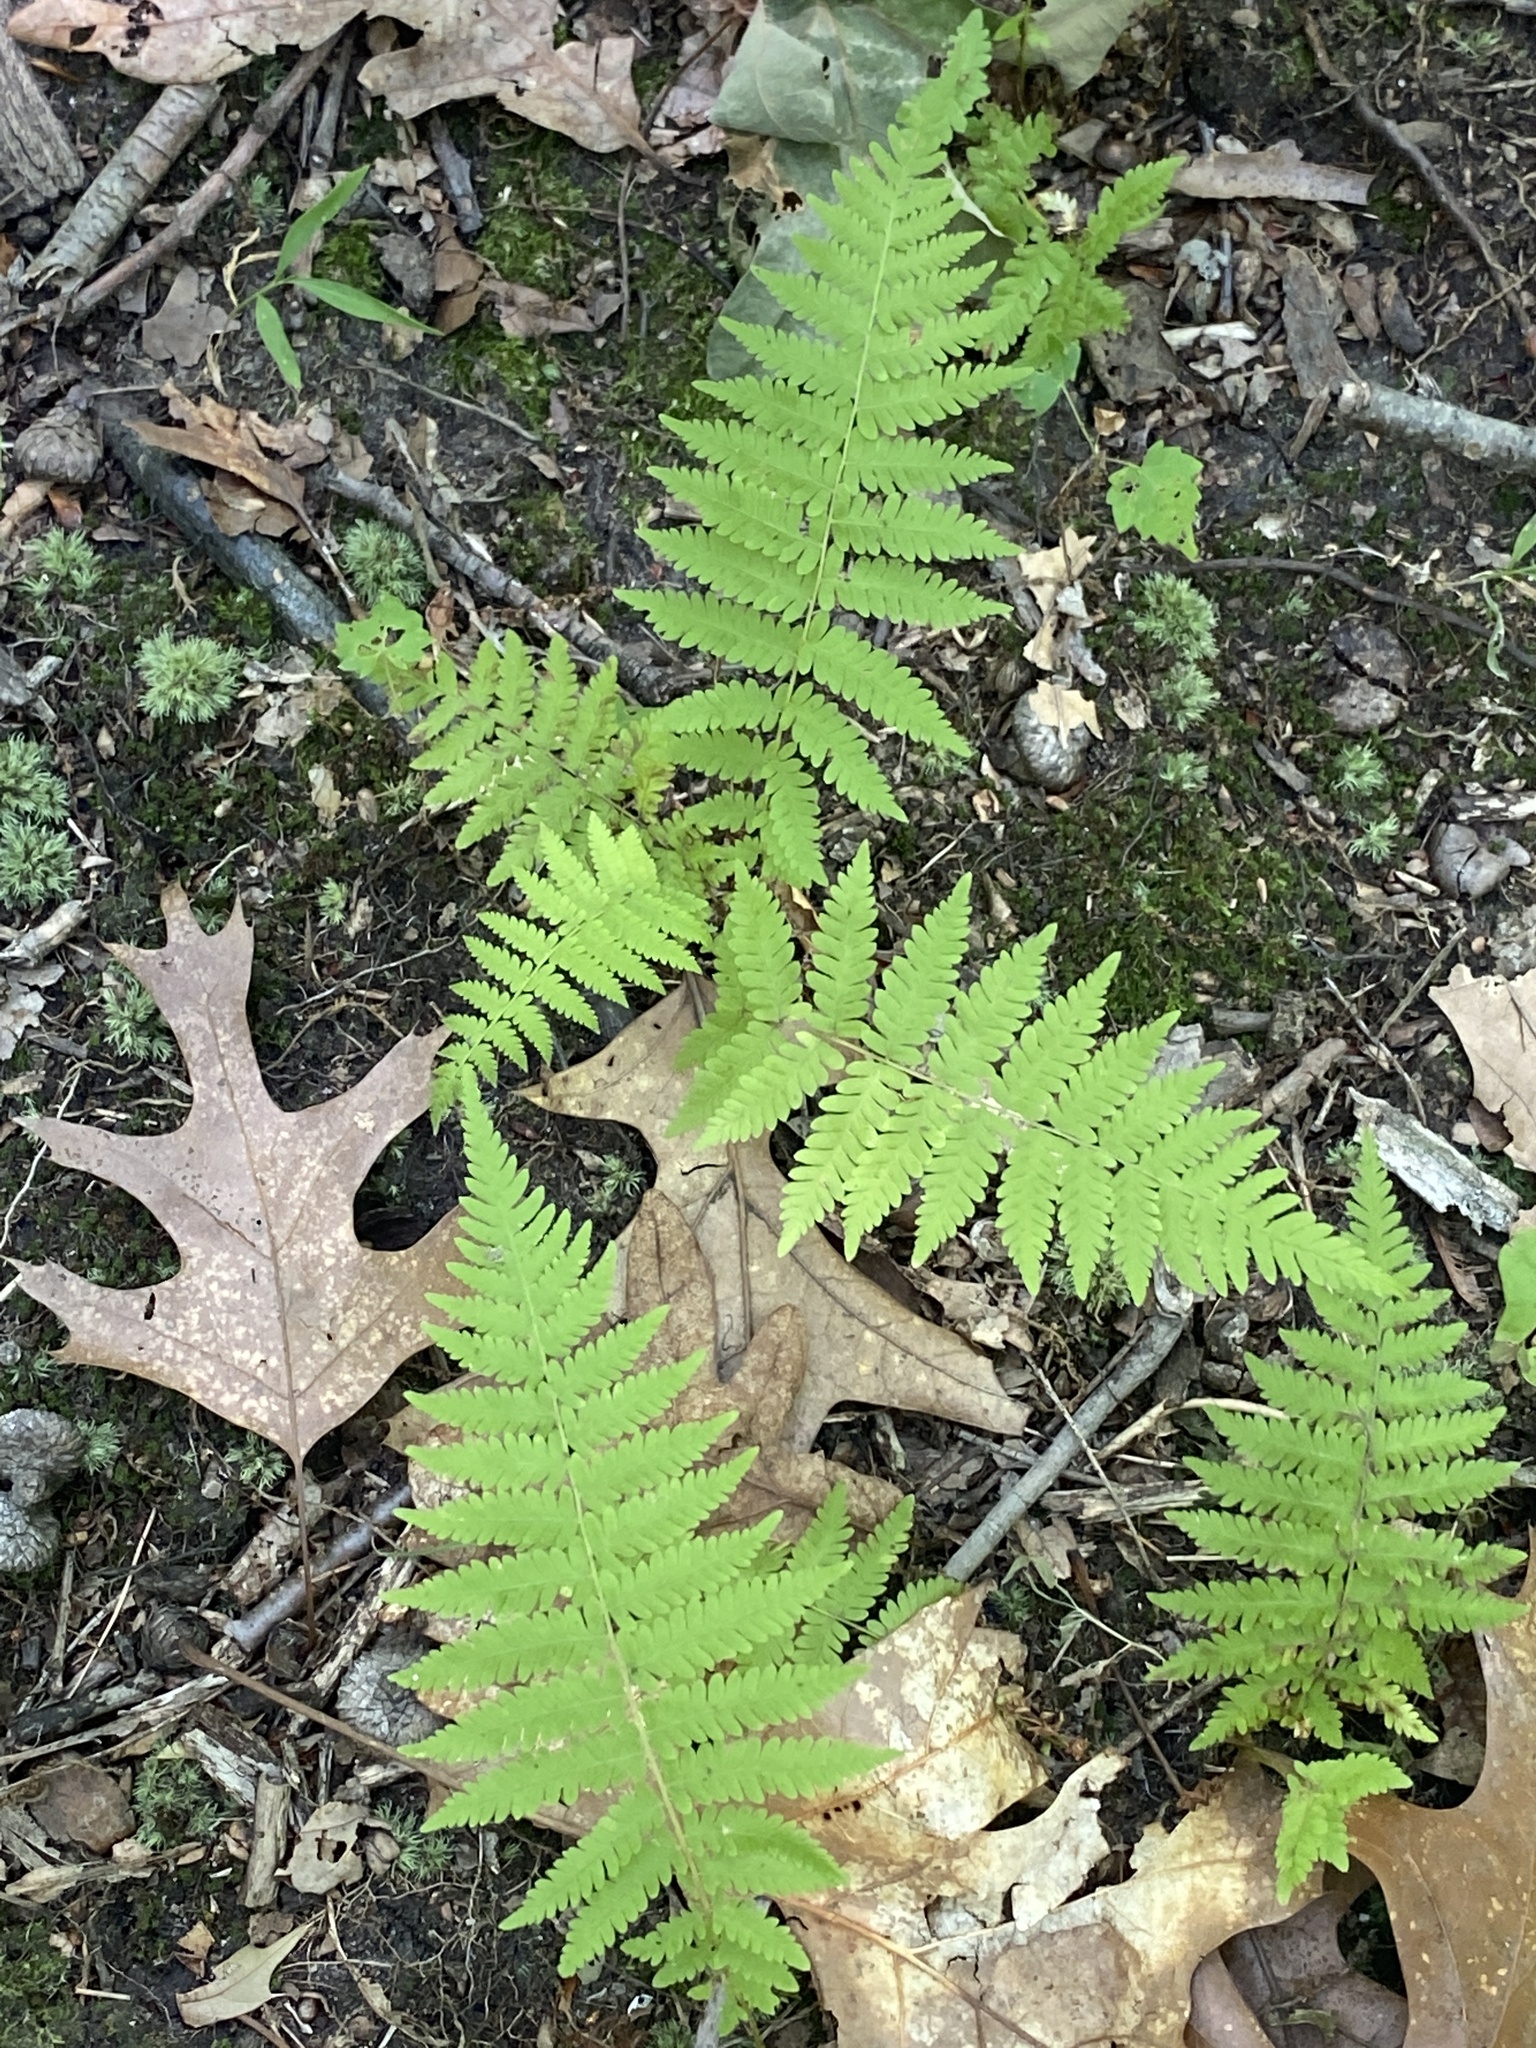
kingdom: Plantae
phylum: Tracheophyta
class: Polypodiopsida
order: Polypodiales
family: Thelypteridaceae
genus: Amauropelta
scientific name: Amauropelta noveboracensis
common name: New york fern
